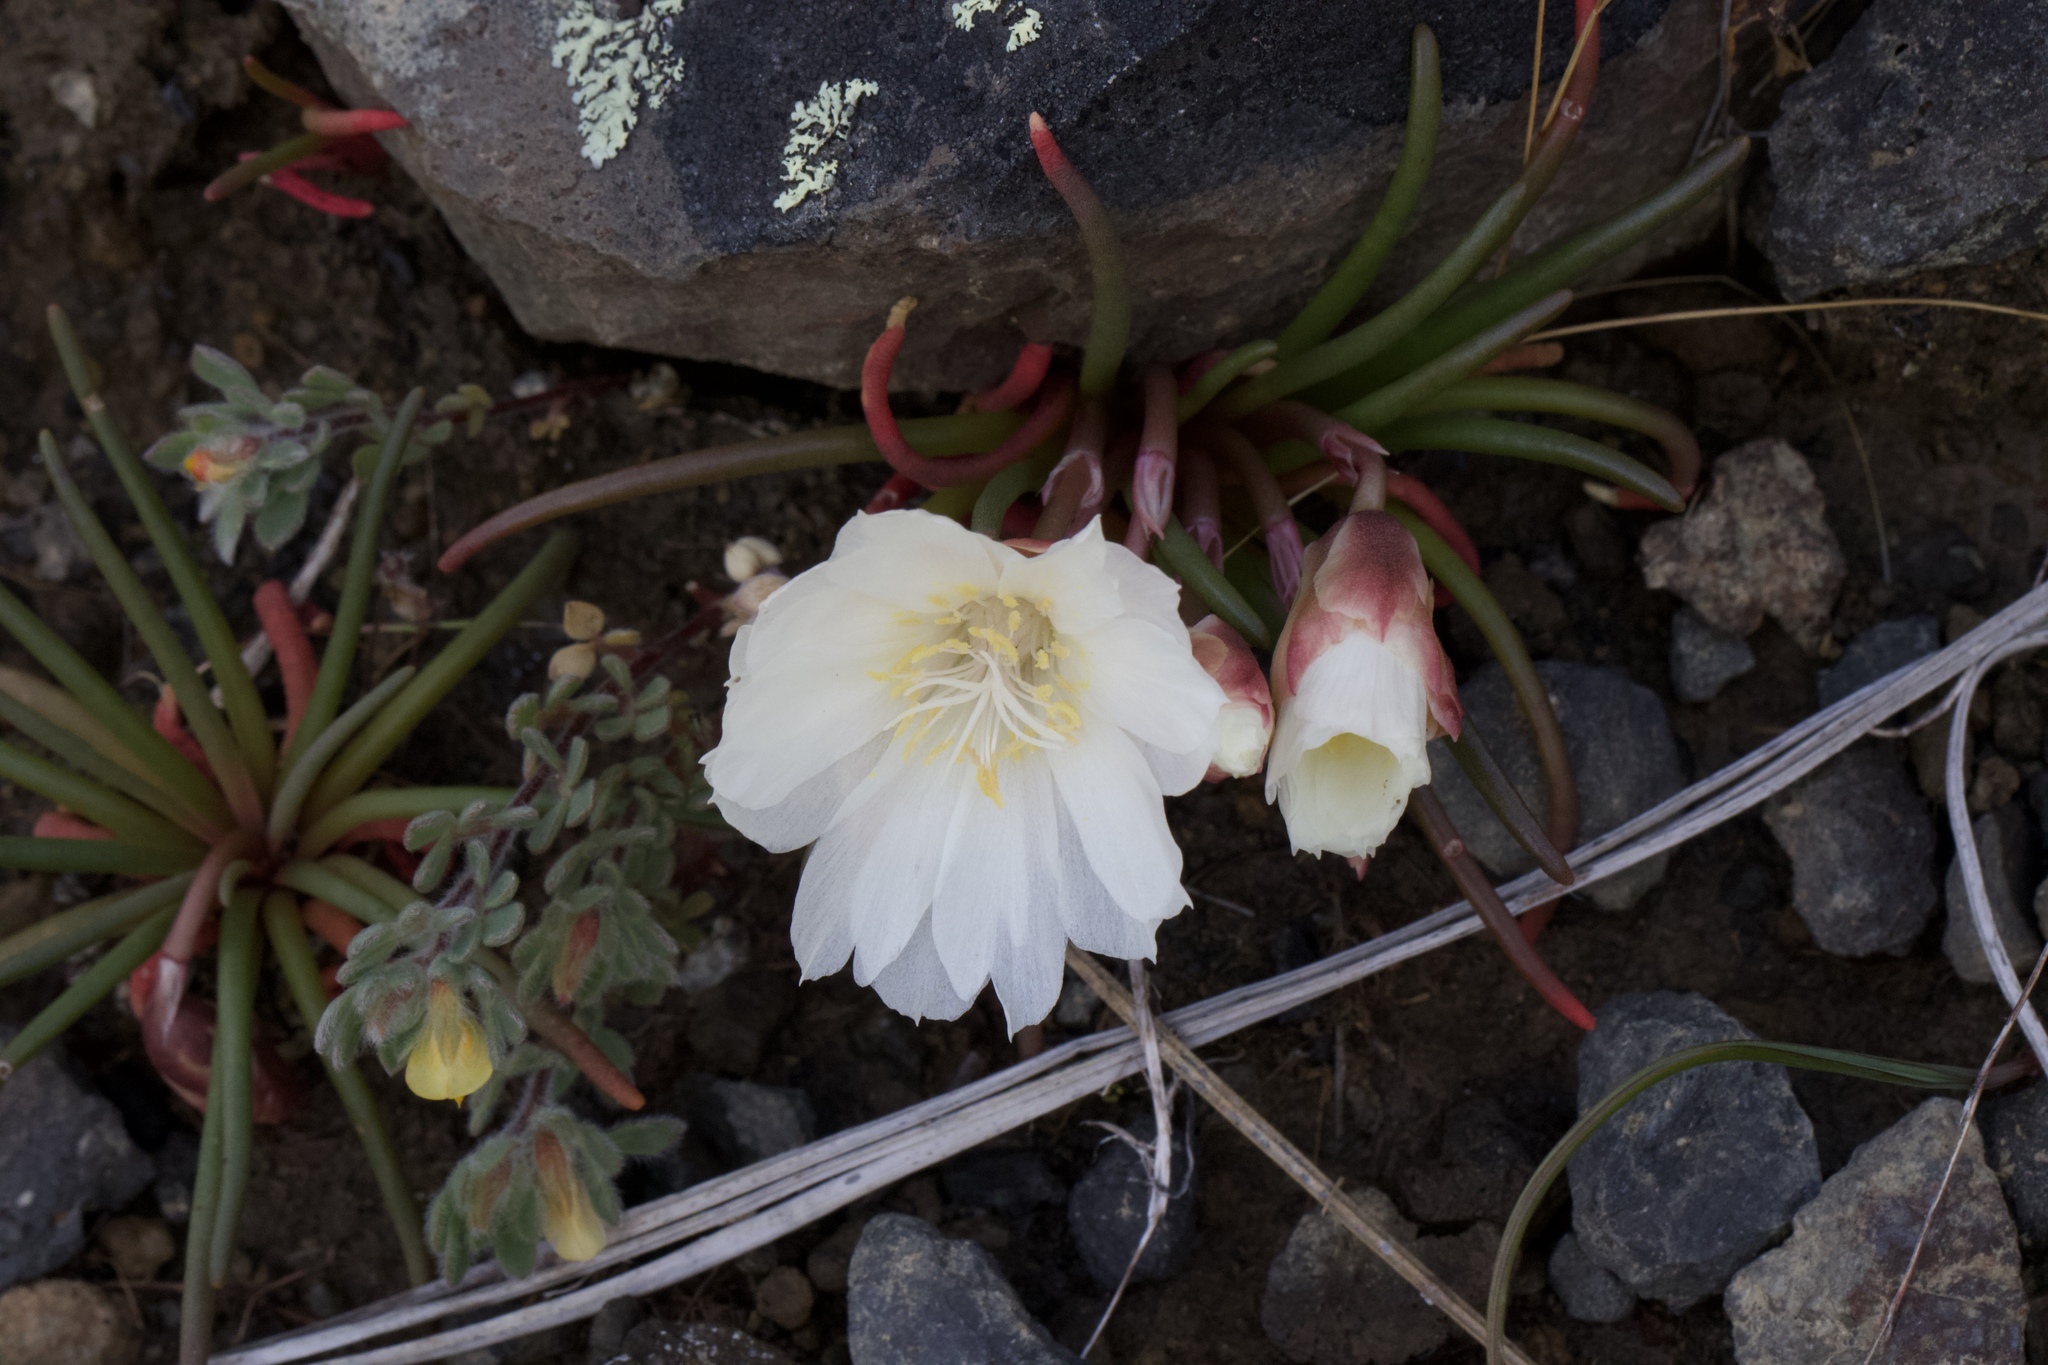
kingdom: Plantae
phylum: Tracheophyta
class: Magnoliopsida
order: Caryophyllales
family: Montiaceae
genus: Lewisia
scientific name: Lewisia rediviva
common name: Bitter-root
